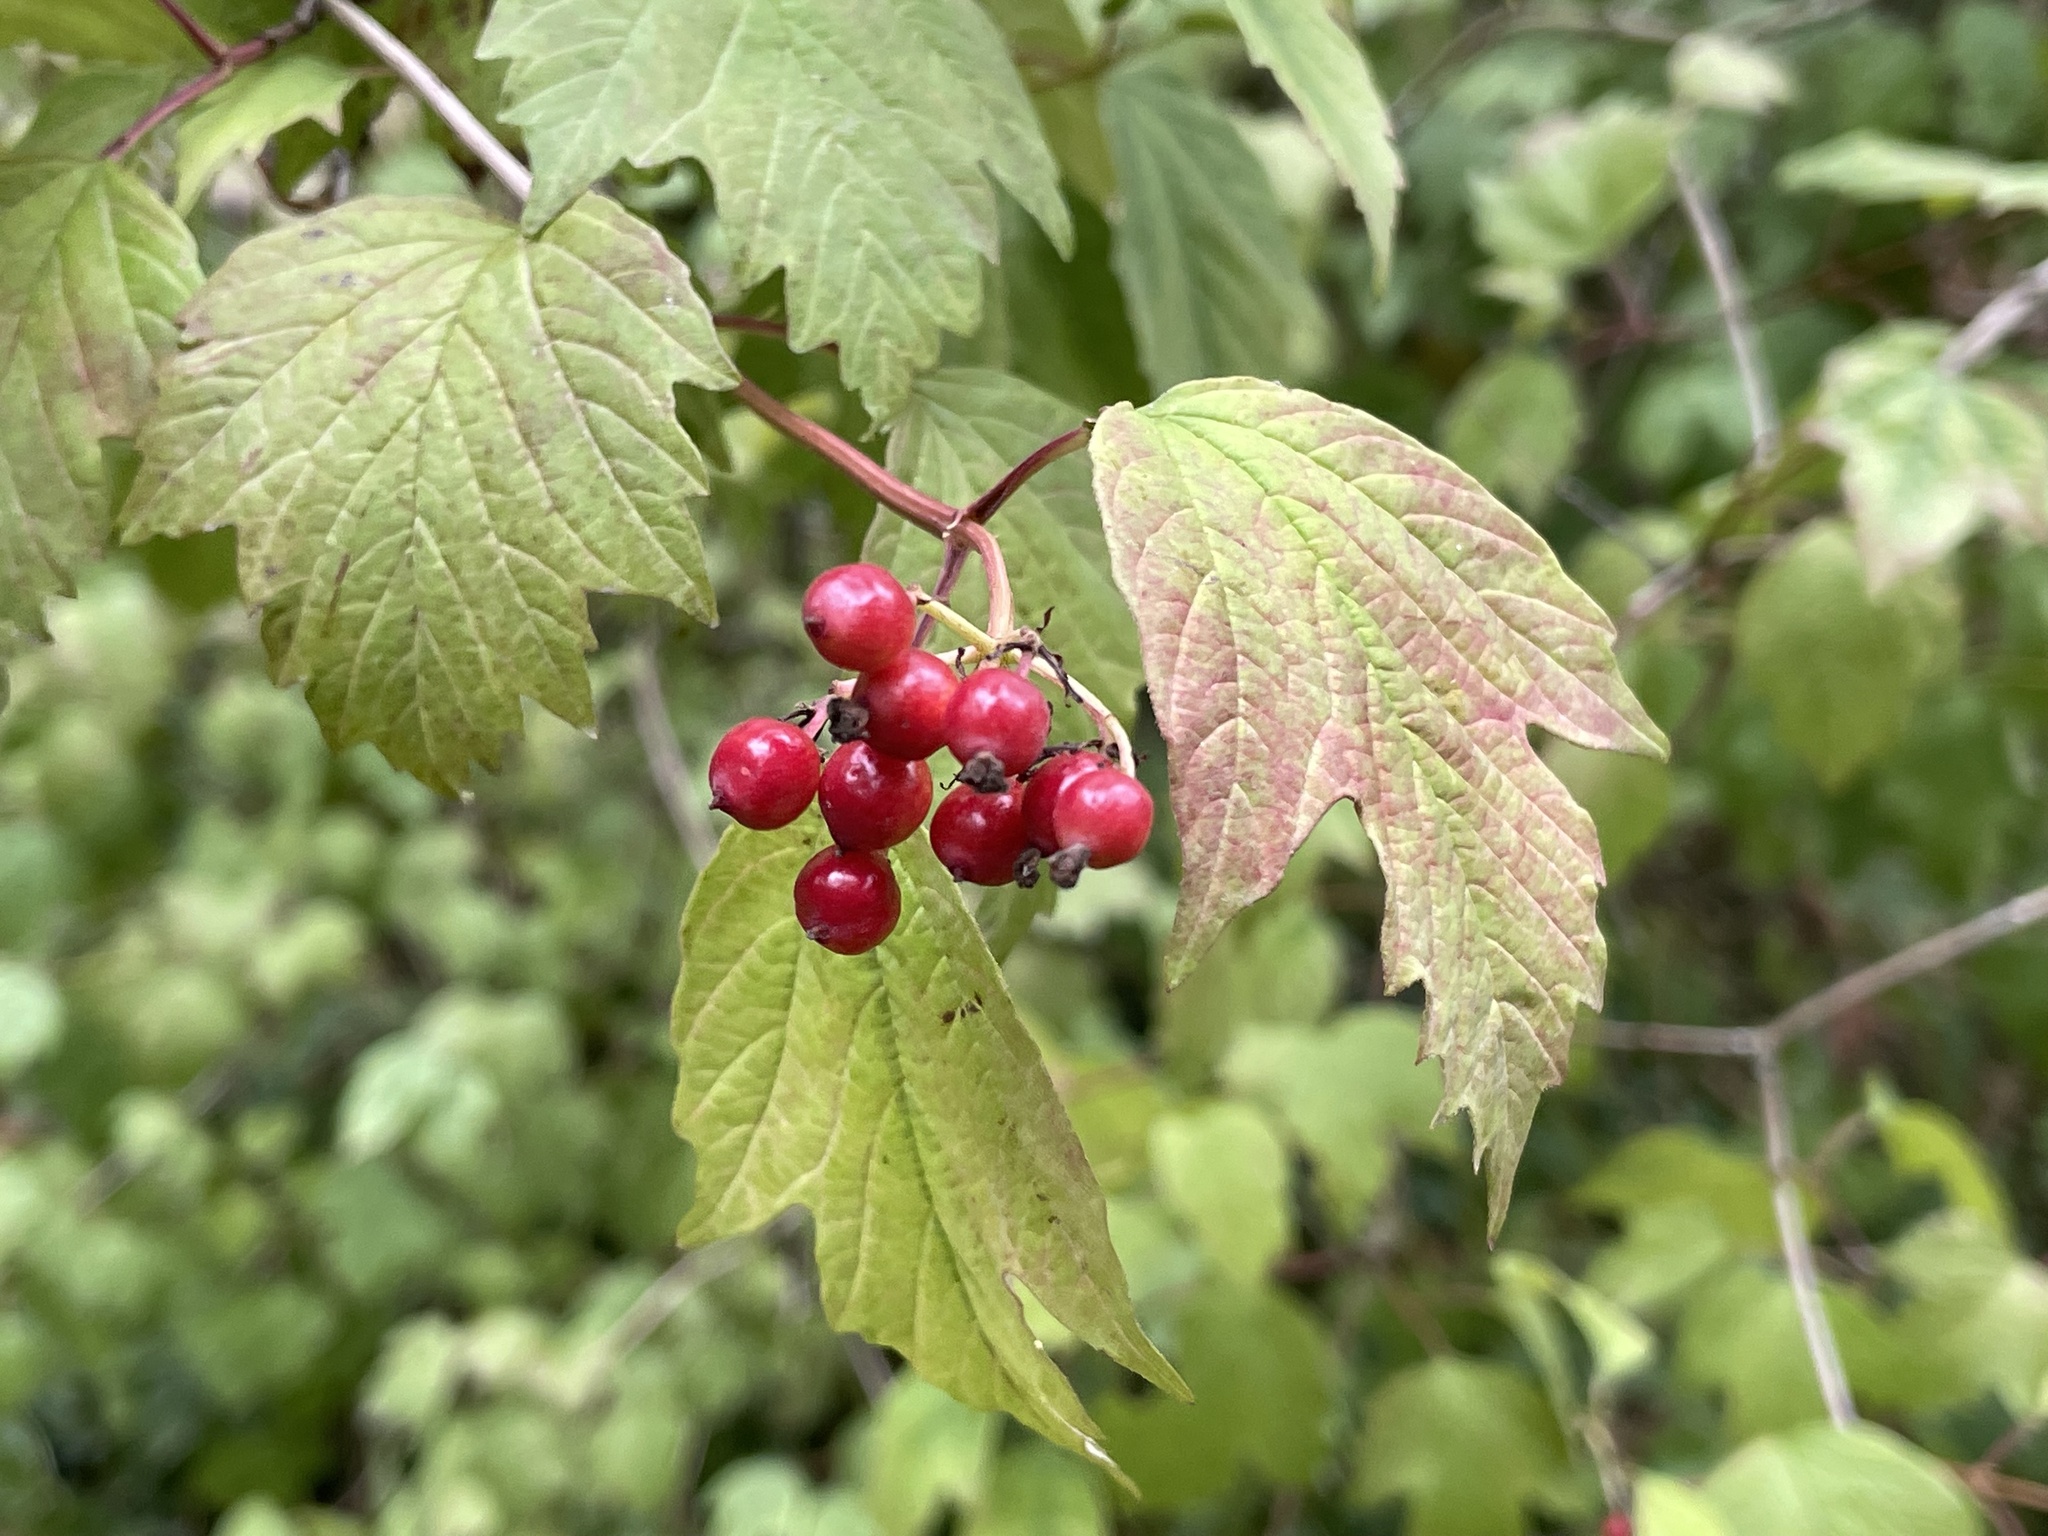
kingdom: Plantae
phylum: Tracheophyta
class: Magnoliopsida
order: Dipsacales
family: Viburnaceae
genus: Viburnum
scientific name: Viburnum opulus
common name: Guelder-rose
